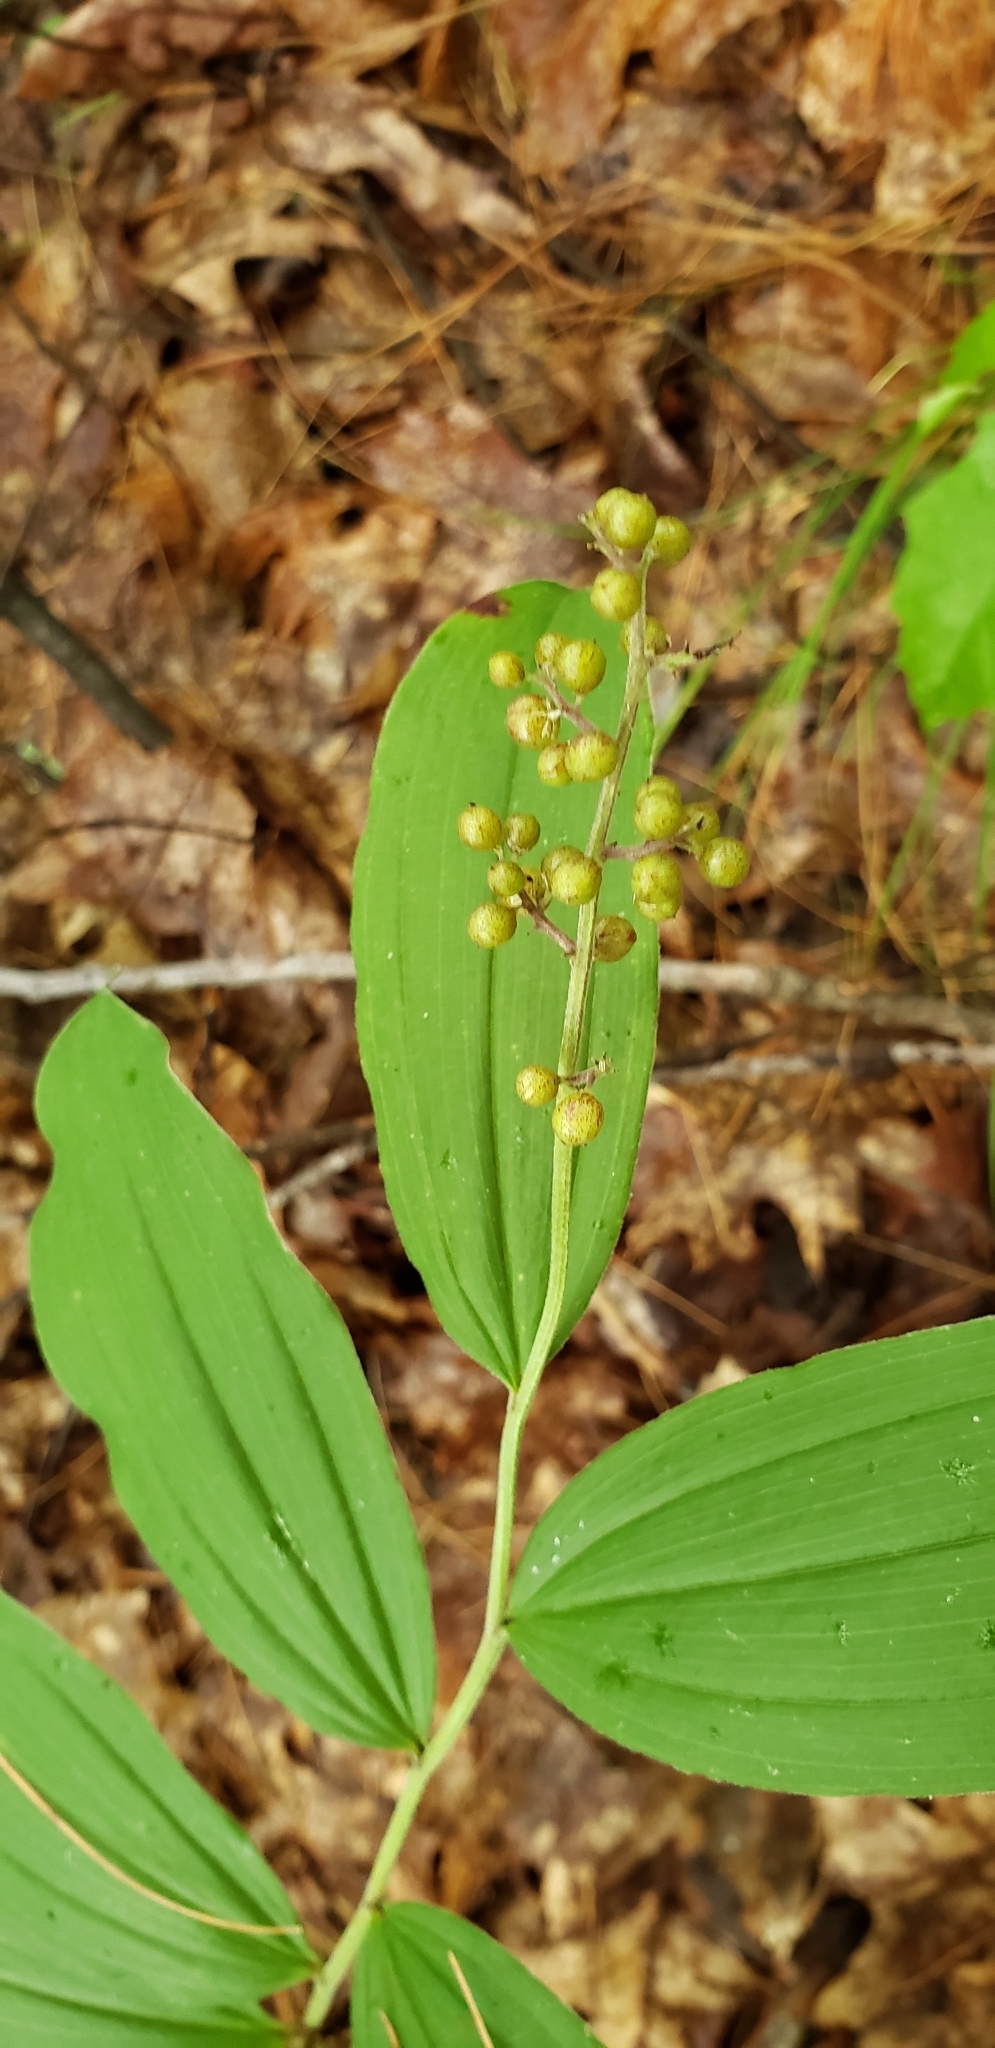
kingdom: Plantae
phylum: Tracheophyta
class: Liliopsida
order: Asparagales
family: Asparagaceae
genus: Maianthemum
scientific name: Maianthemum racemosum
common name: False spikenard
